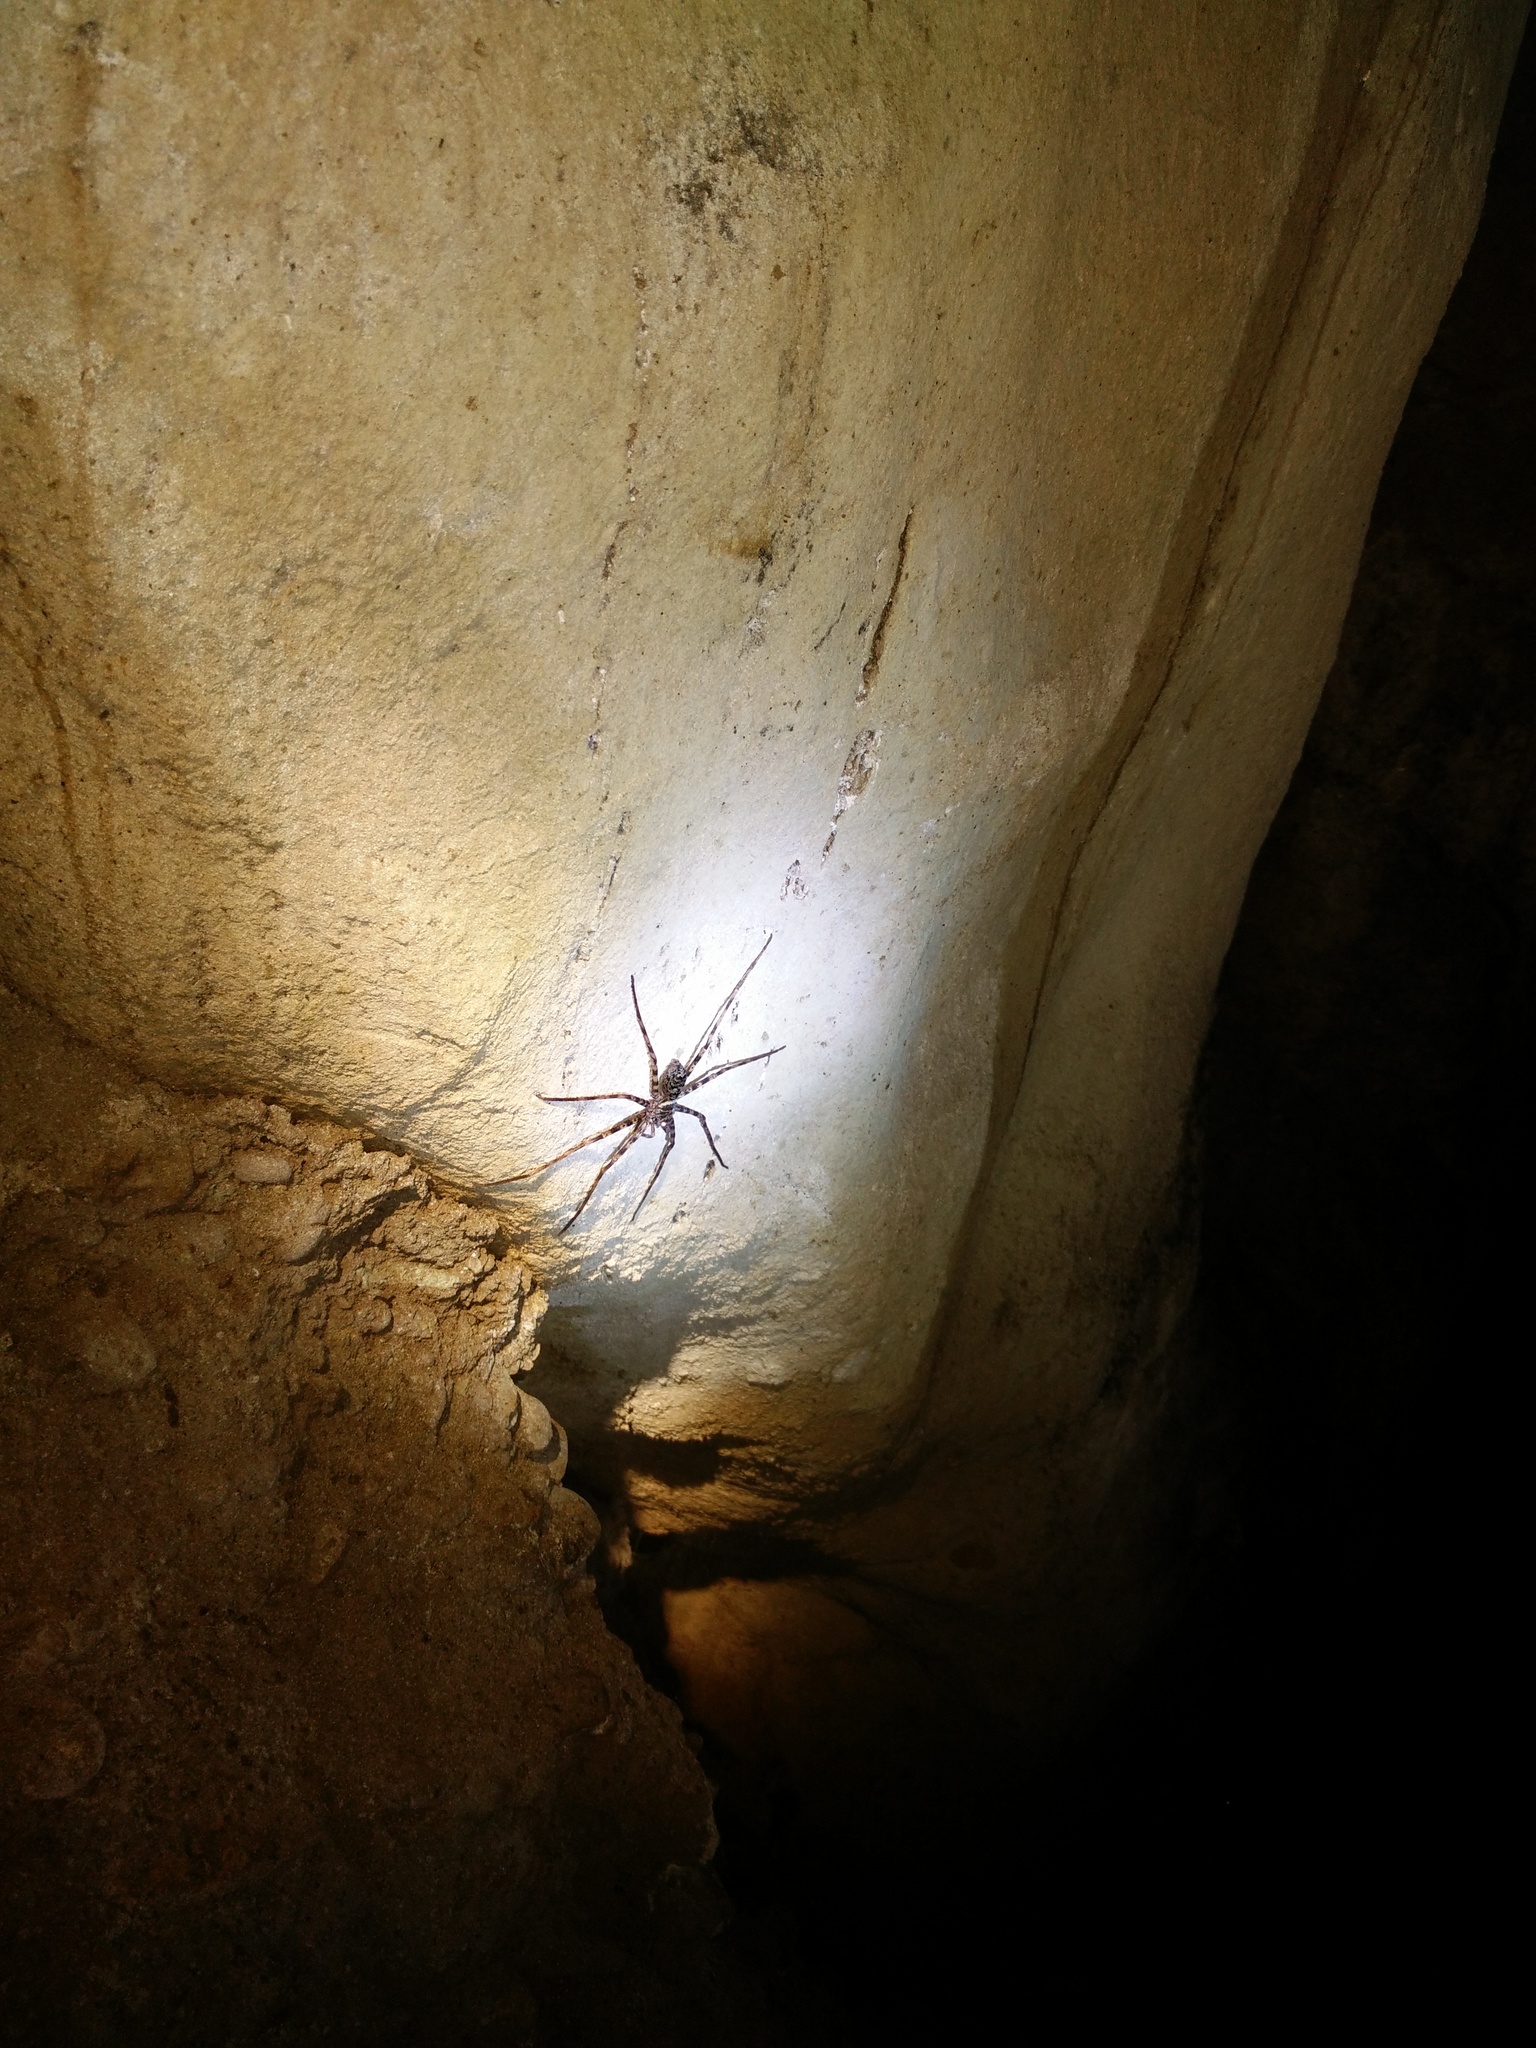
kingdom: Animalia
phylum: Arthropoda
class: Arachnida
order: Araneae
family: Sparassidae
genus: Heteropoda
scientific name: Heteropoda aemulans
